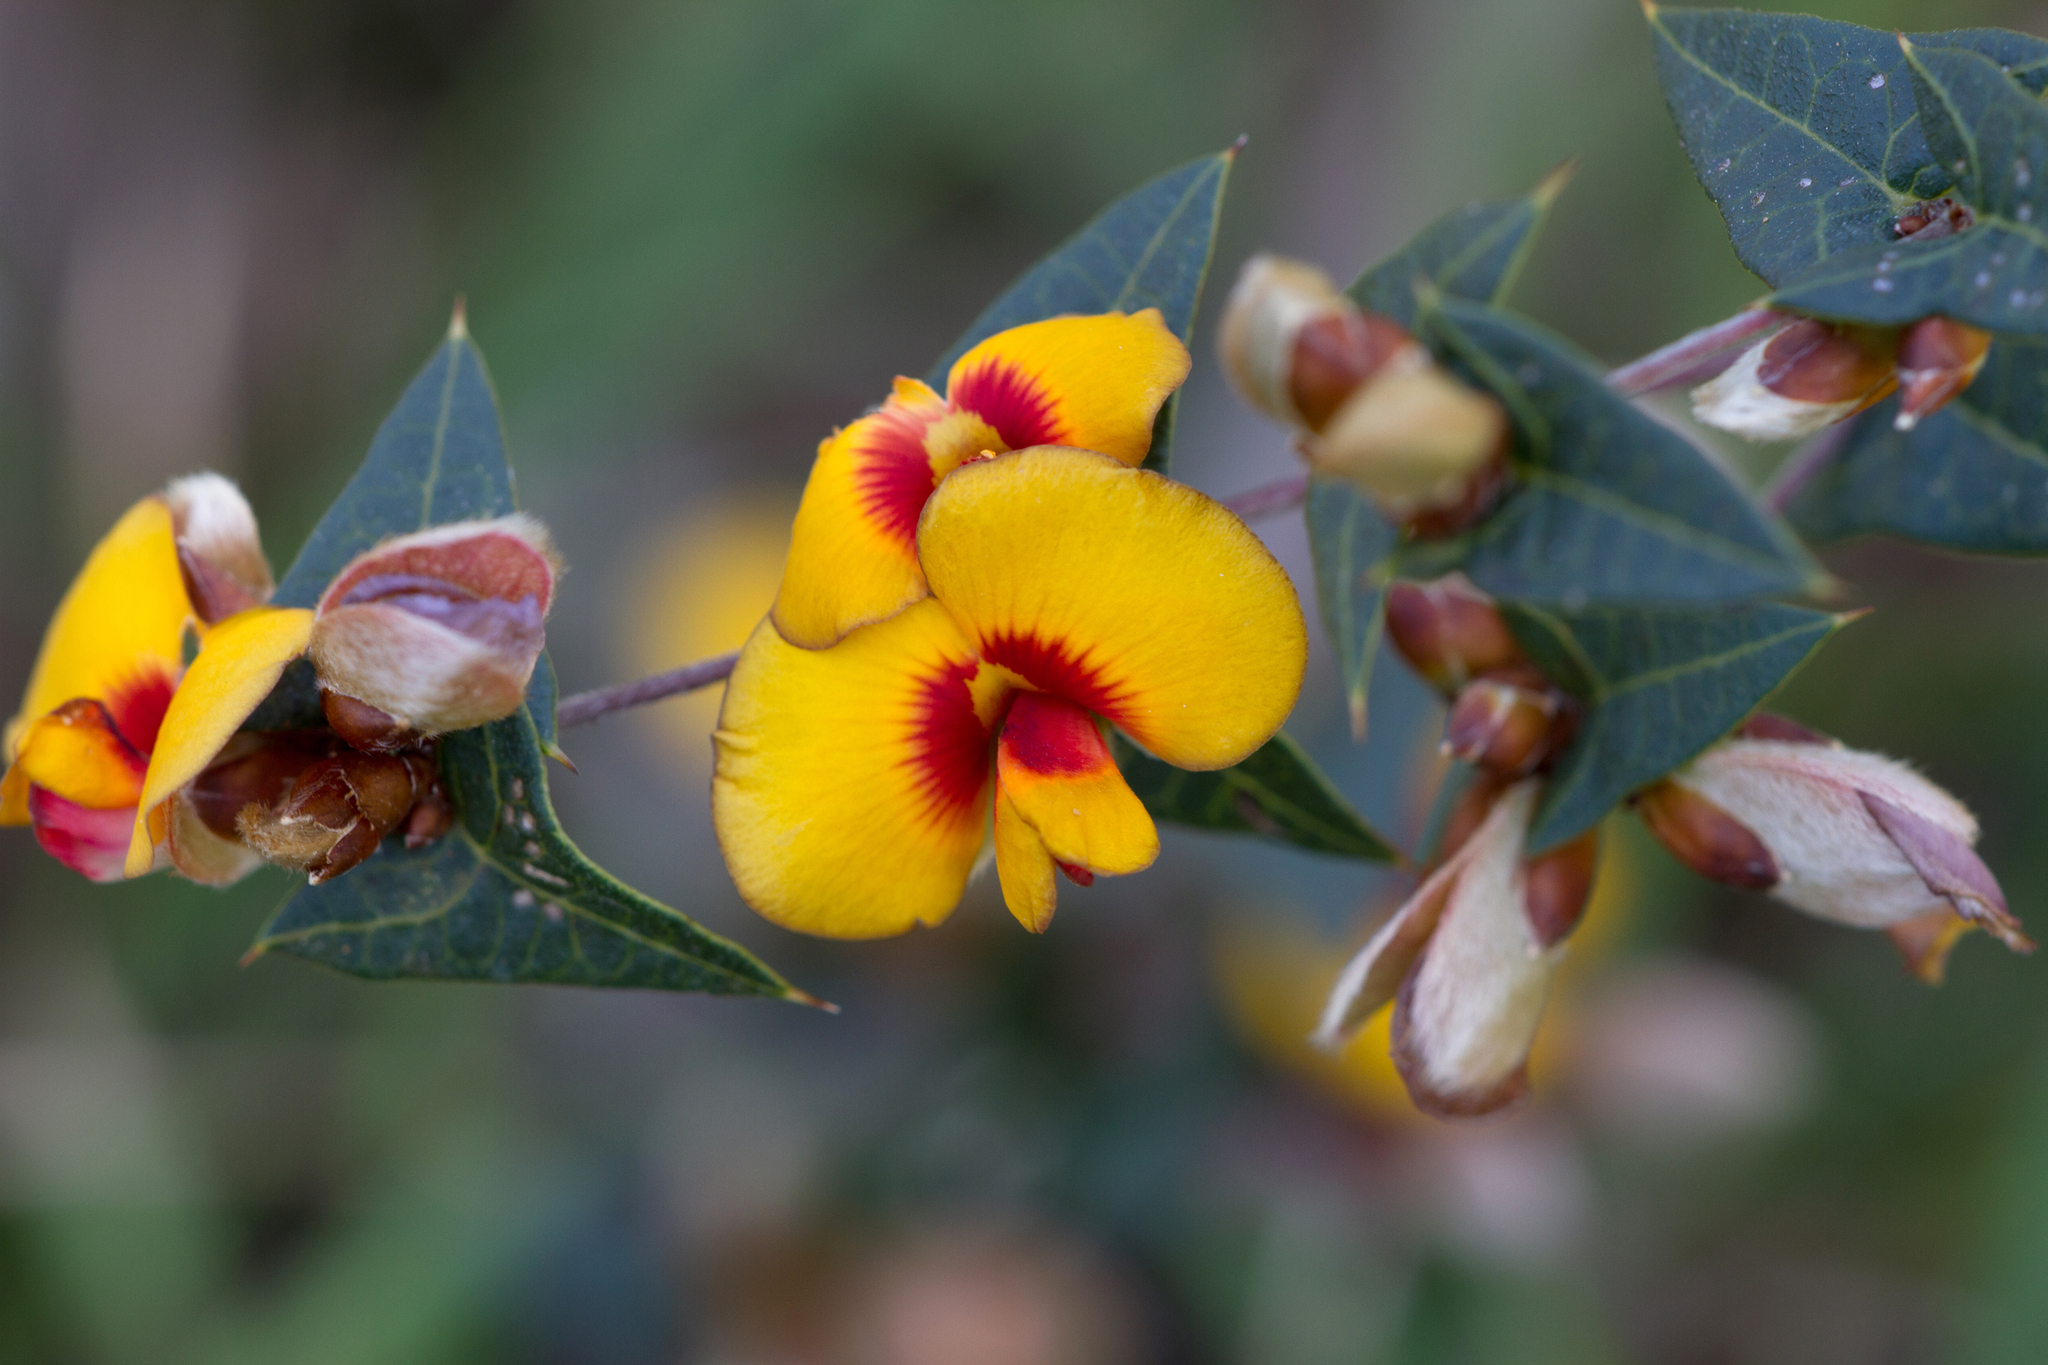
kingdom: Plantae
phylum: Tracheophyta
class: Magnoliopsida
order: Fabales
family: Fabaceae
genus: Platylobium
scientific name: Platylobium obtusangulum
